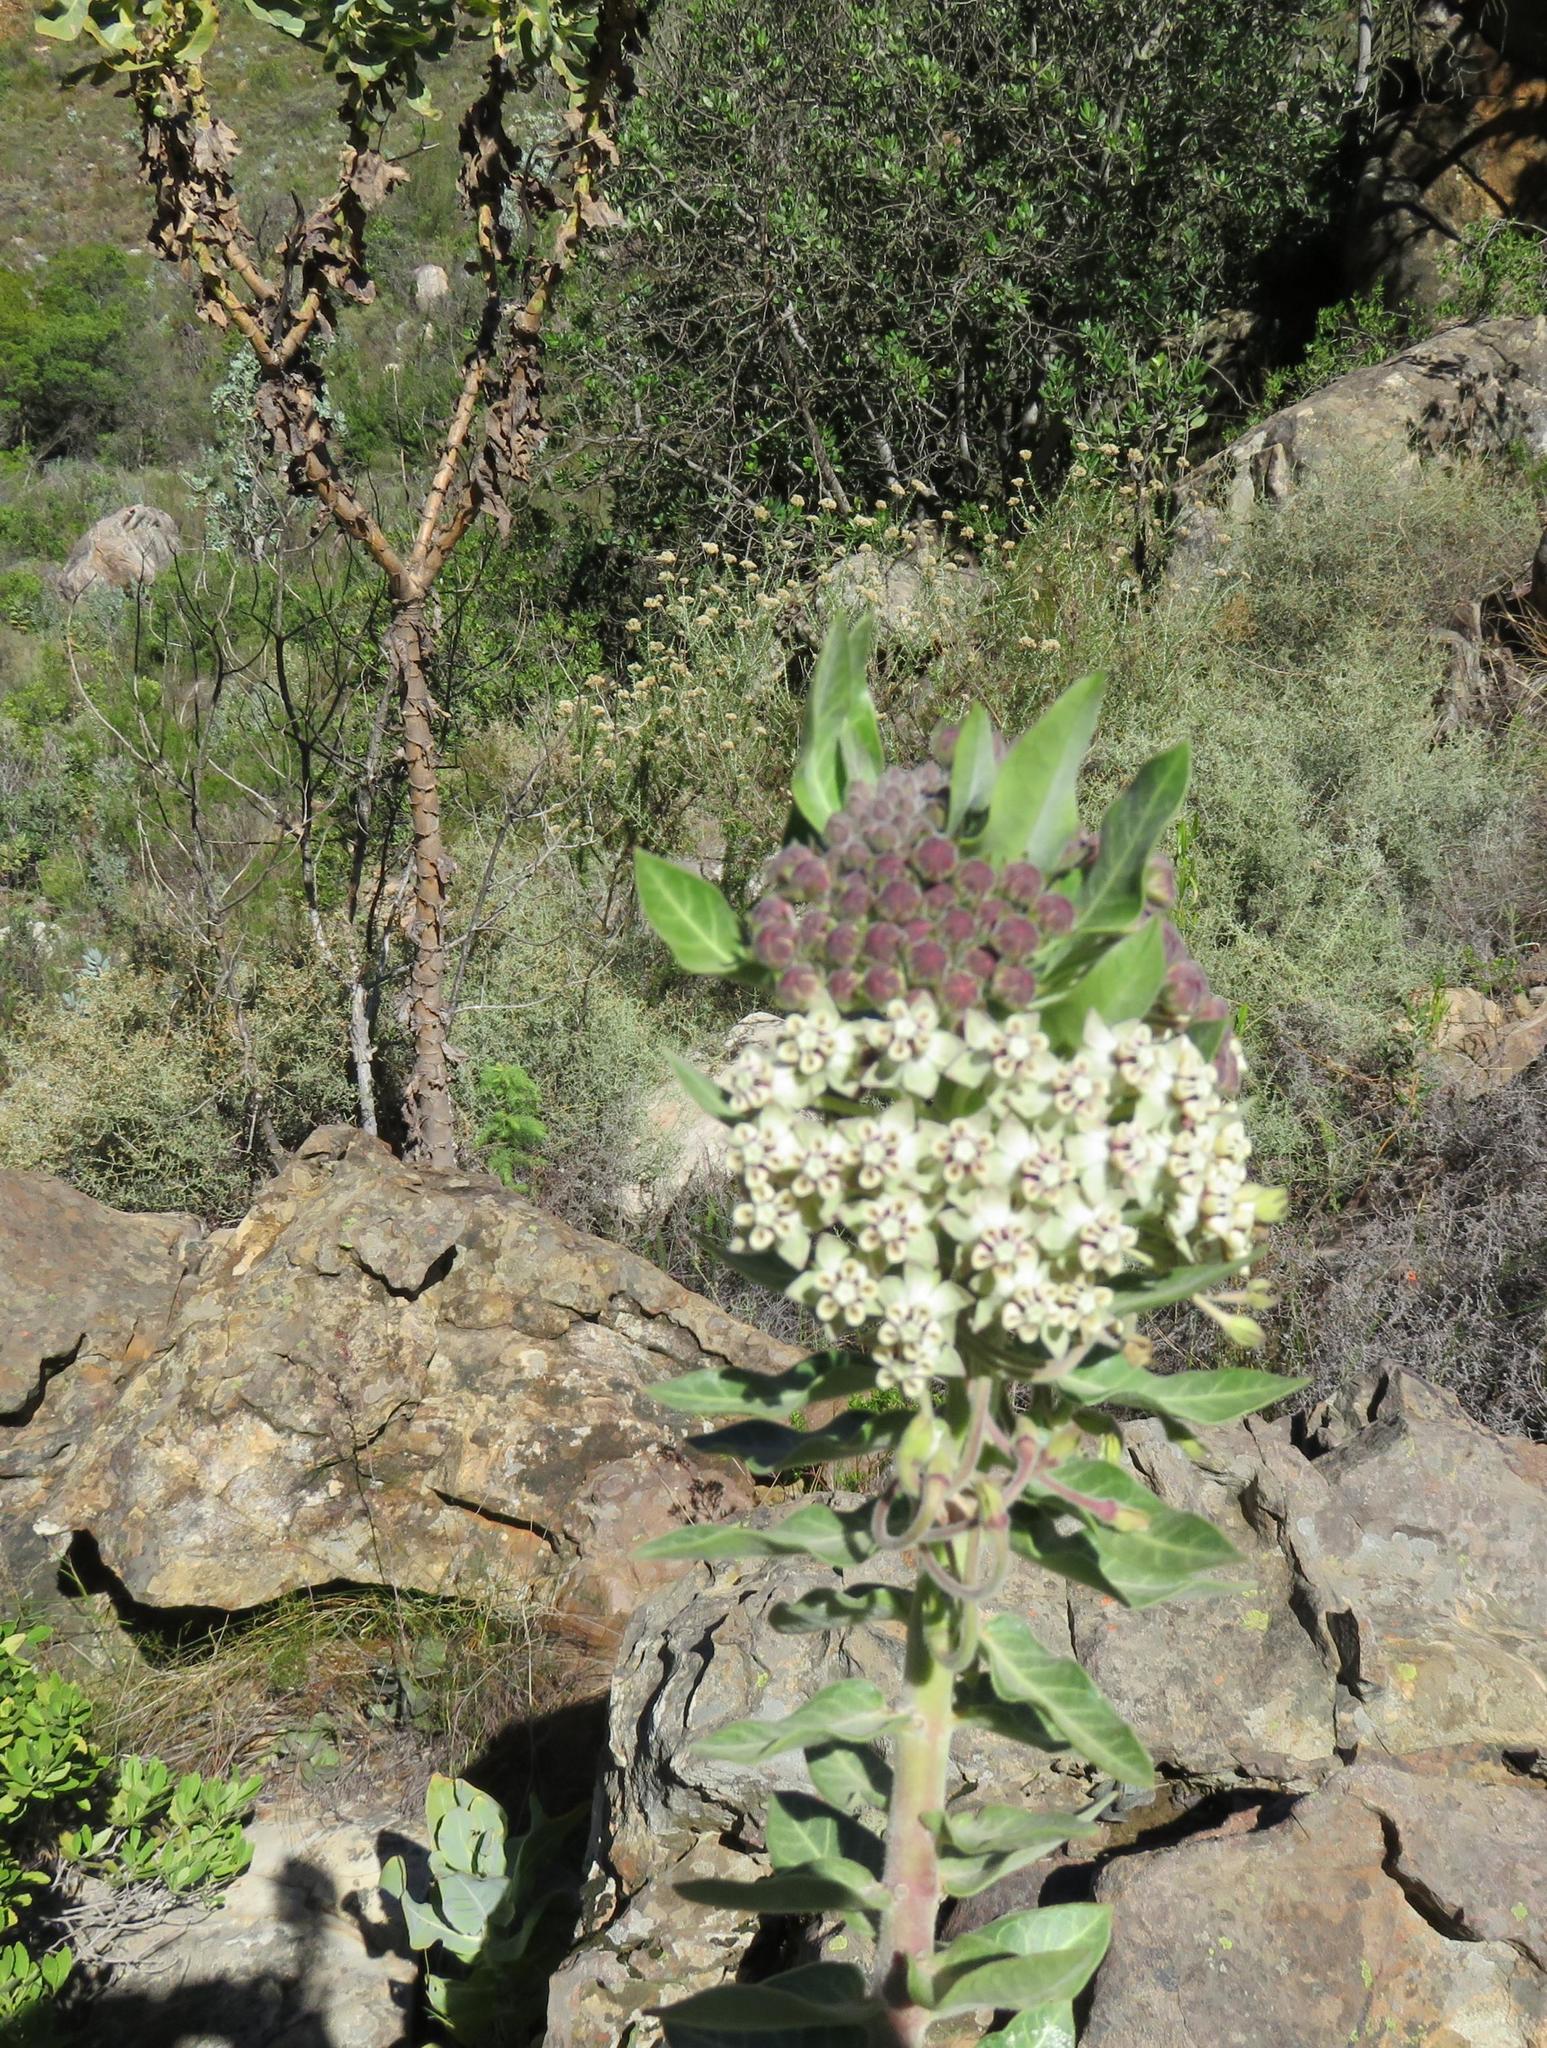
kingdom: Plantae
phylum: Tracheophyta
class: Magnoliopsida
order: Gentianales
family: Apocynaceae
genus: Gomphocarpus
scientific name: Gomphocarpus cancellatus
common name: Wild cotton
